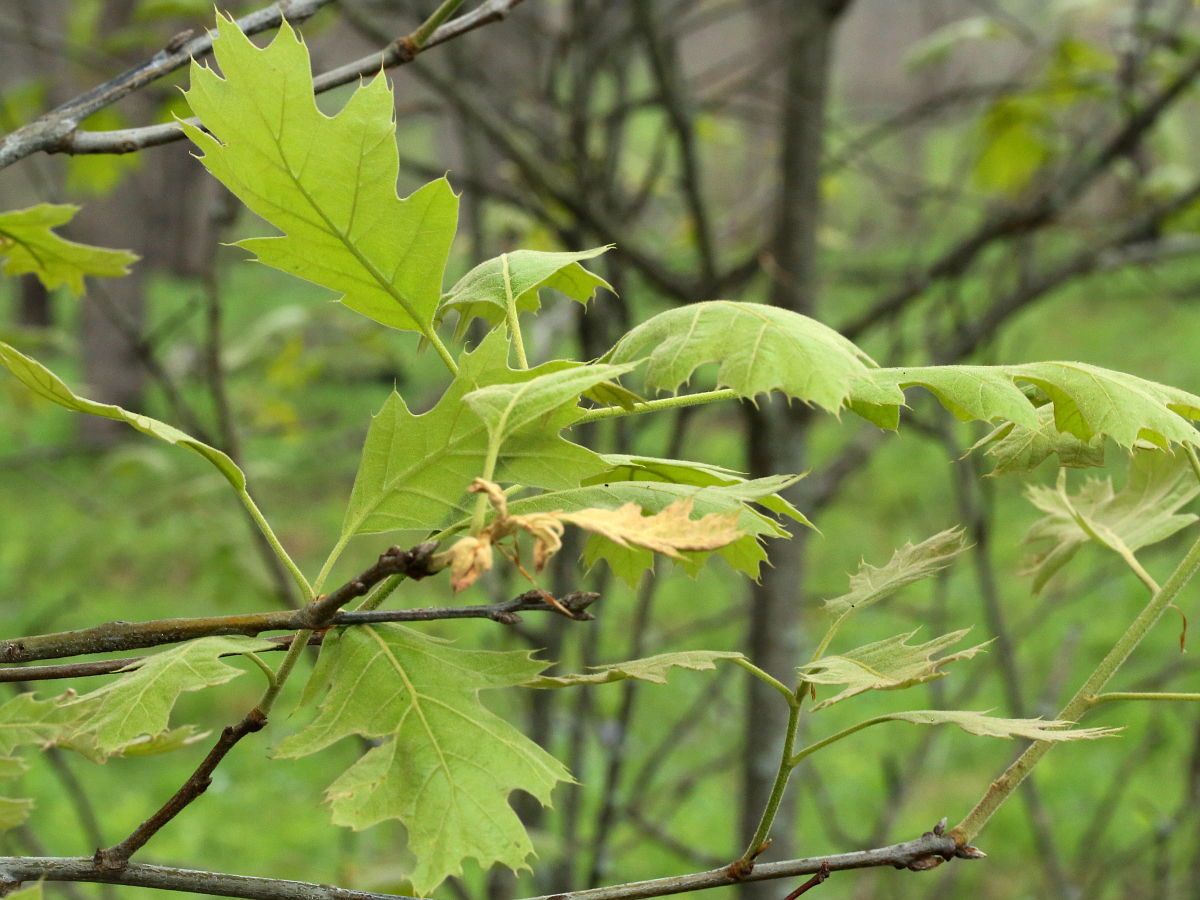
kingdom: Plantae
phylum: Tracheophyta
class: Magnoliopsida
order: Fagales
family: Fagaceae
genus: Quercus
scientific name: Quercus velutina
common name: Black oak
